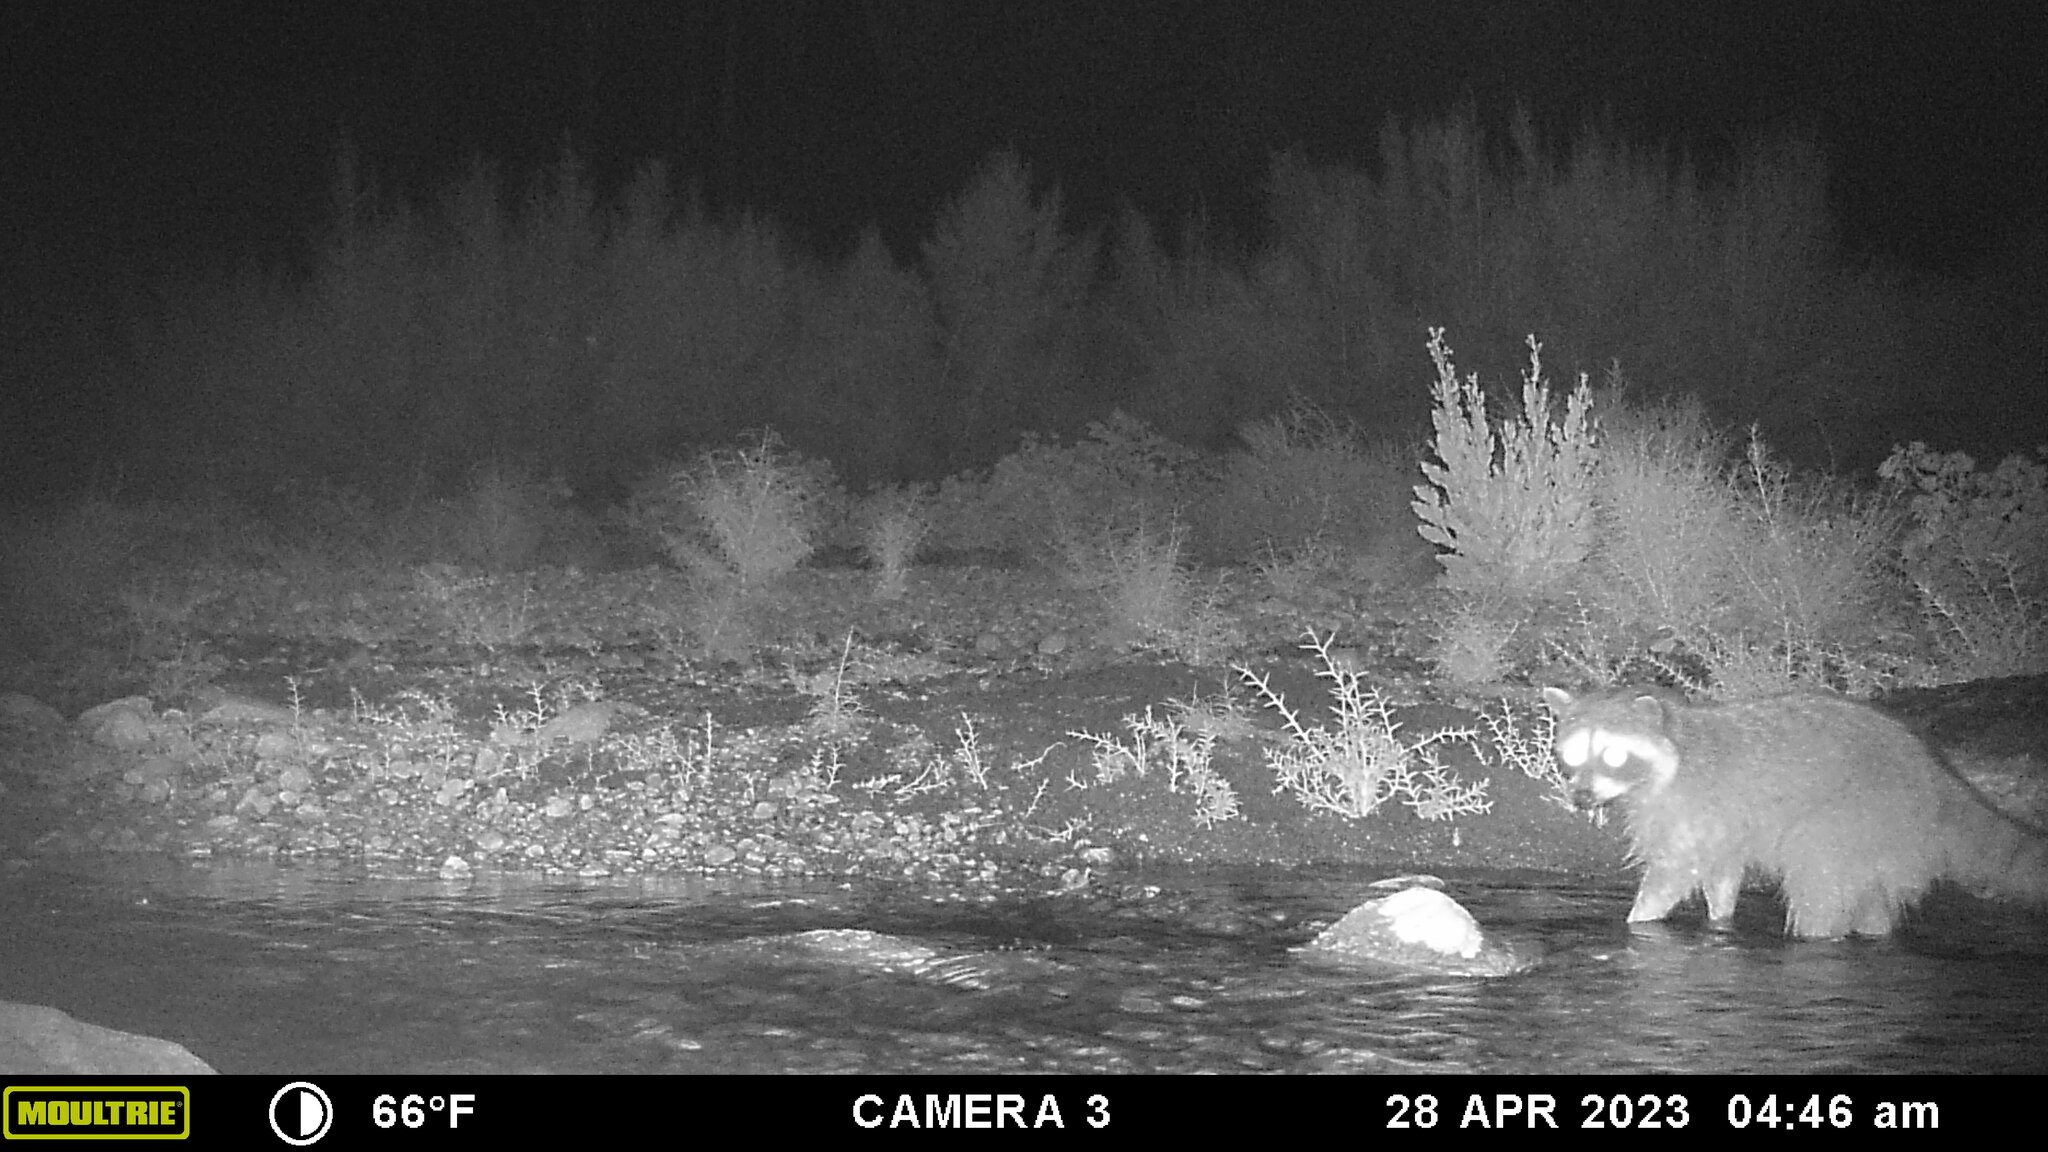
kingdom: Animalia
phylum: Chordata
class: Mammalia
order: Carnivora
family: Procyonidae
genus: Procyon
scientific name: Procyon lotor
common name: Raccoon
